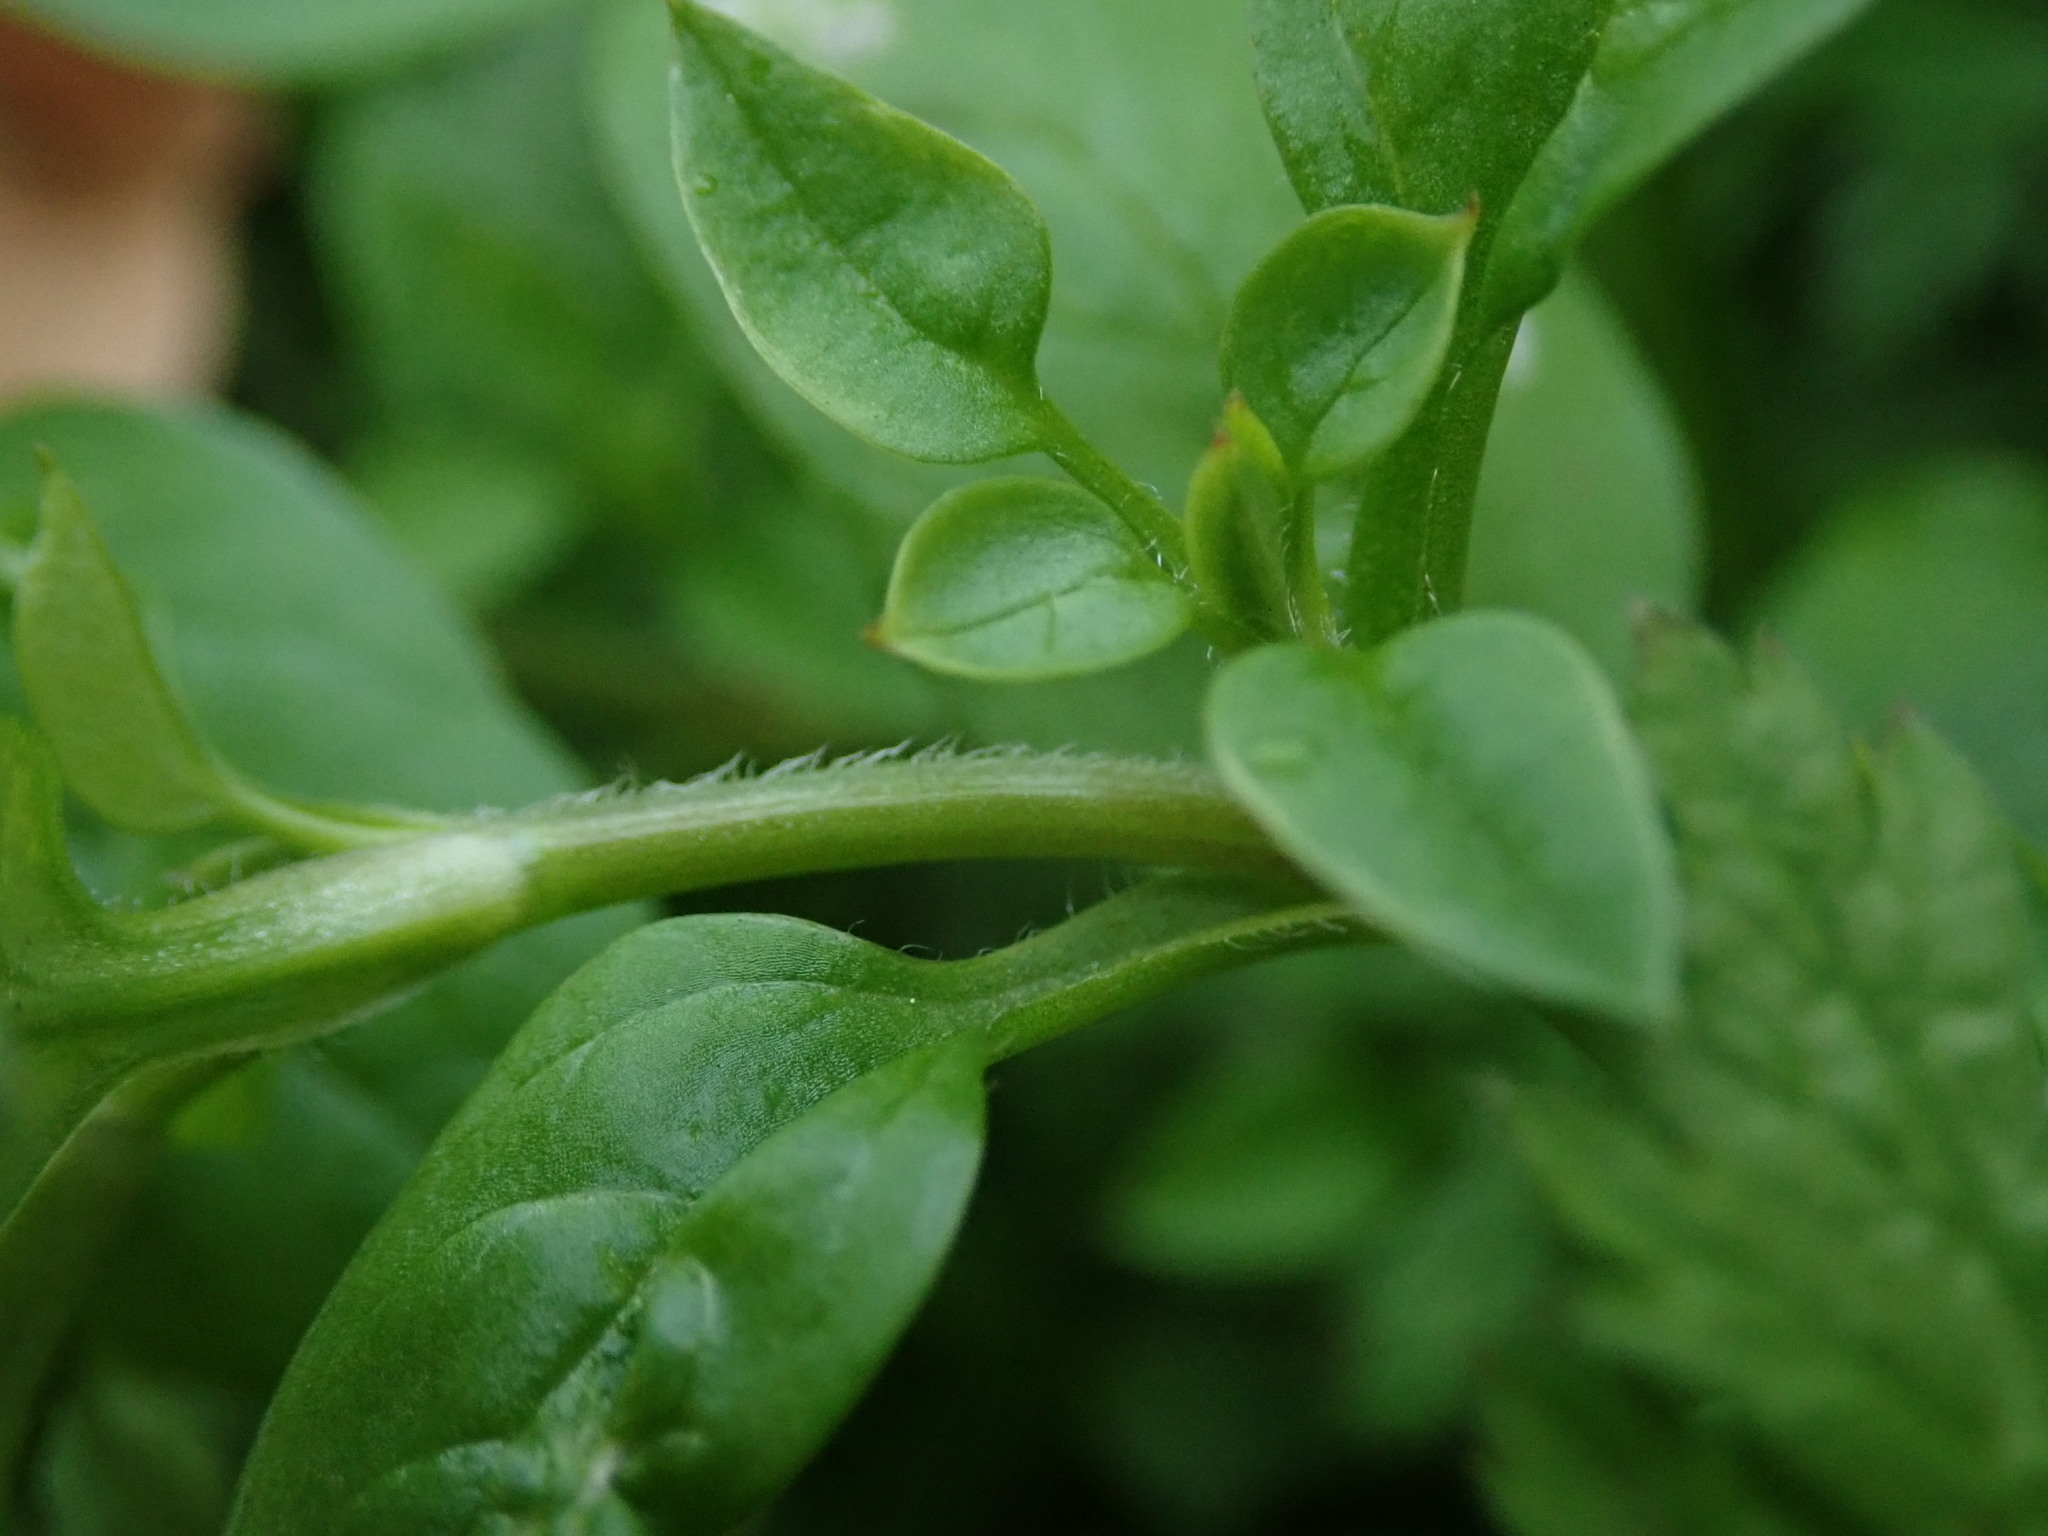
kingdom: Plantae
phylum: Tracheophyta
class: Magnoliopsida
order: Caryophyllales
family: Caryophyllaceae
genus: Stellaria
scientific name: Stellaria media
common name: Common chickweed
